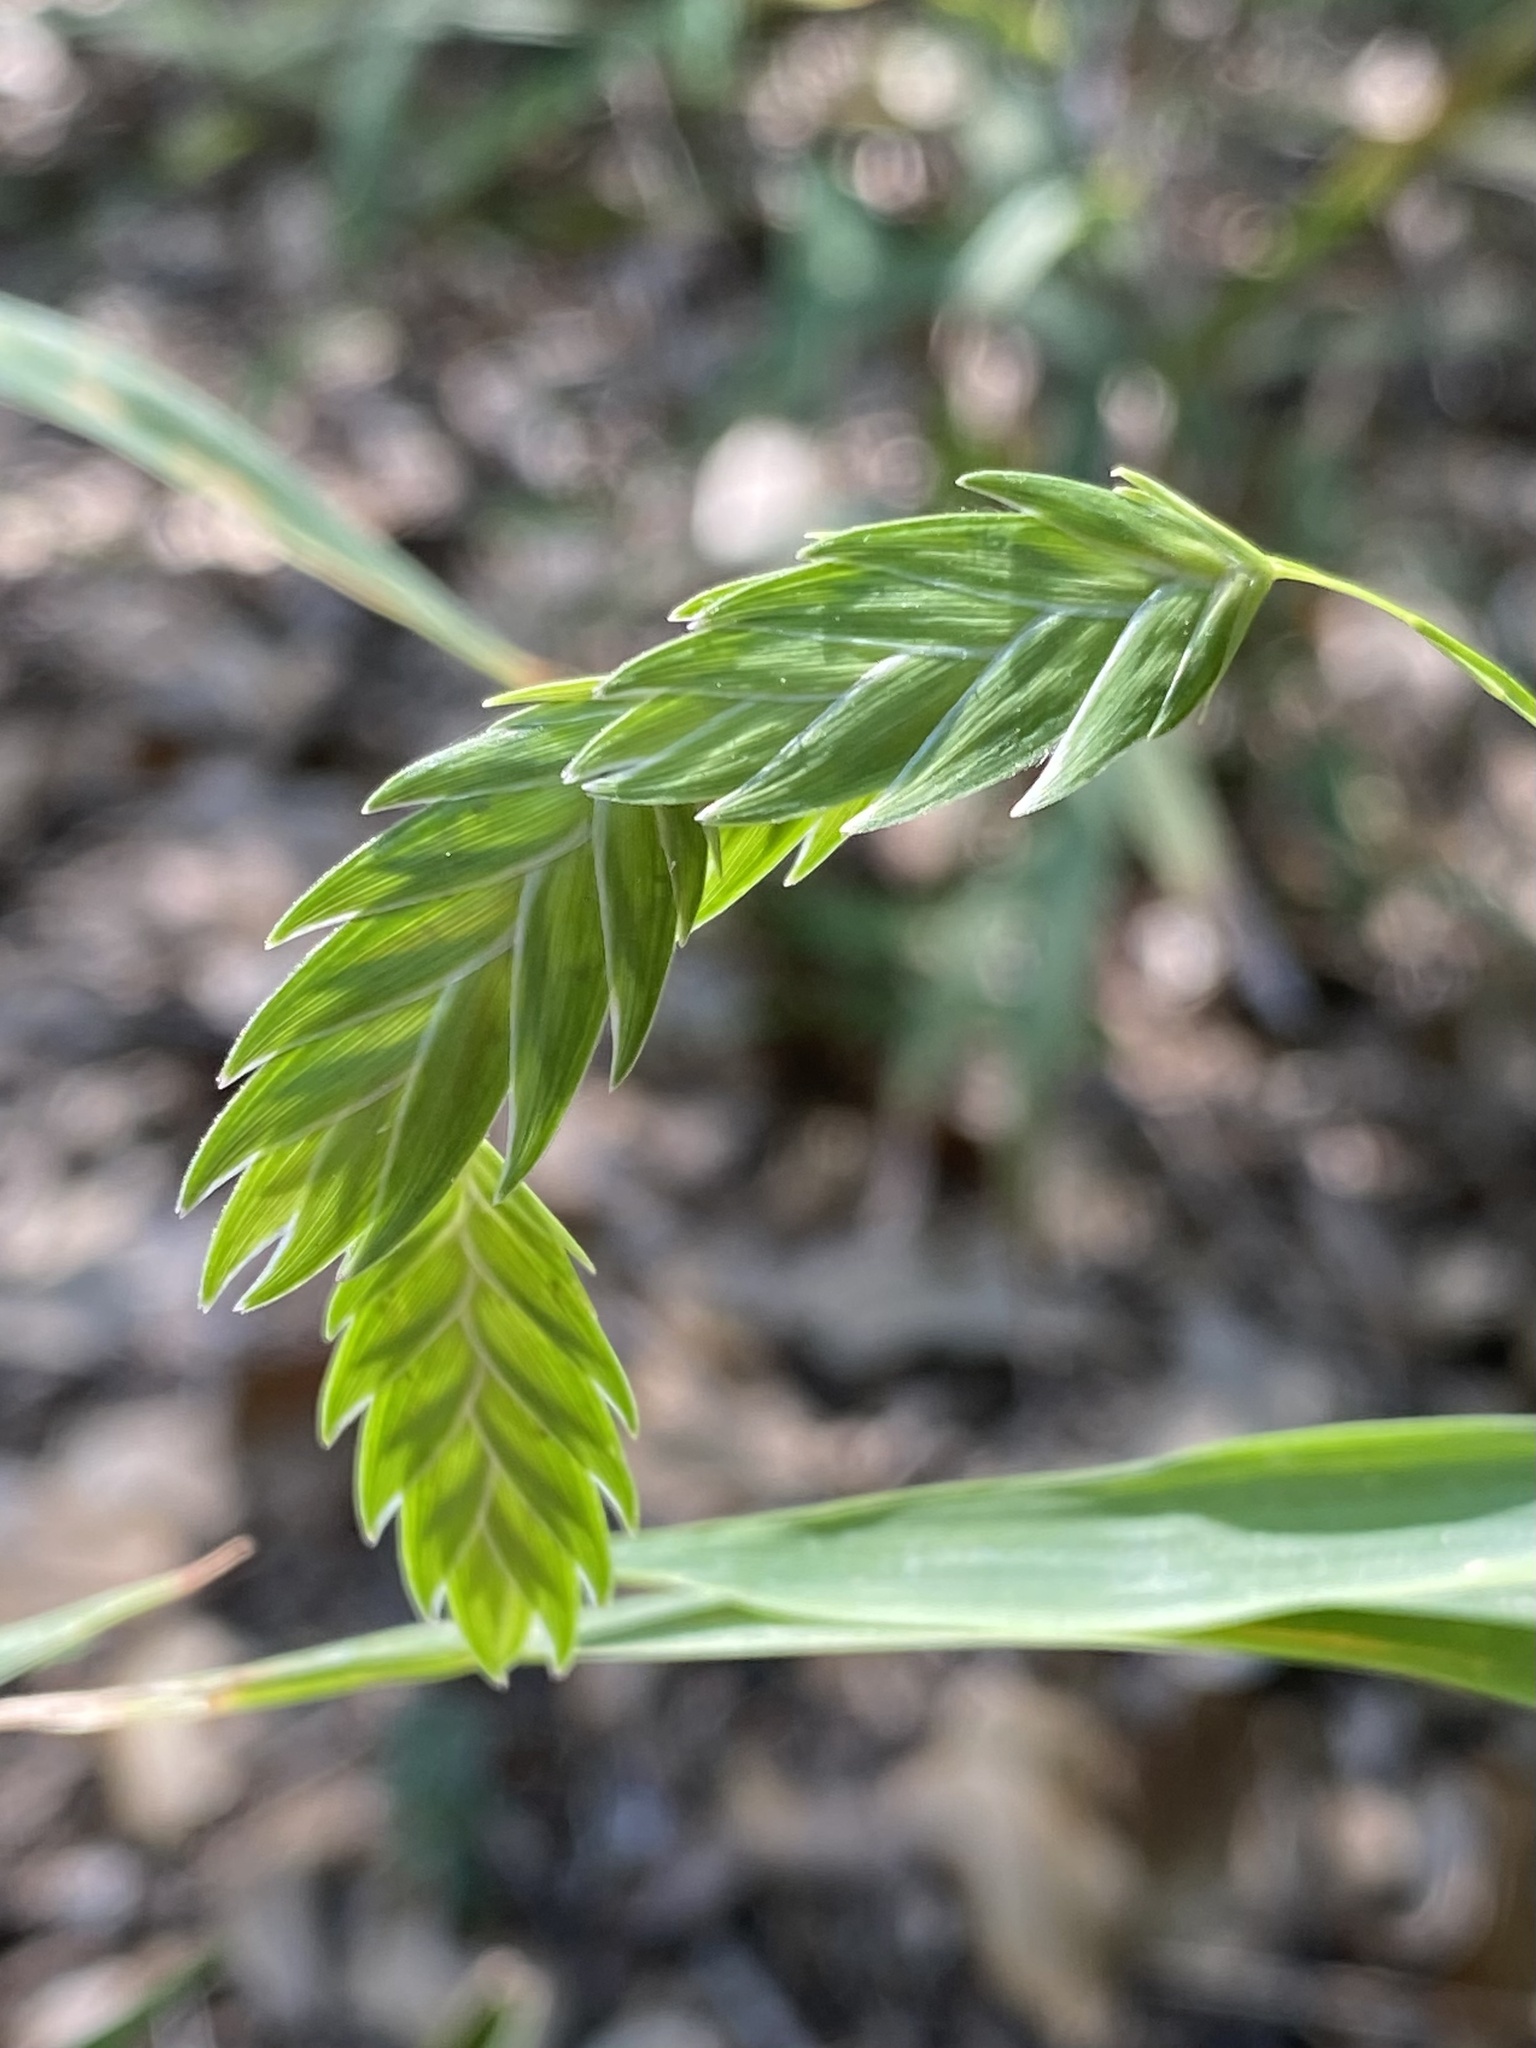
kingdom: Plantae
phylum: Tracheophyta
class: Liliopsida
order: Poales
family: Poaceae
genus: Chasmanthium
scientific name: Chasmanthium latifolium
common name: Broad-leaved chasmanthium
